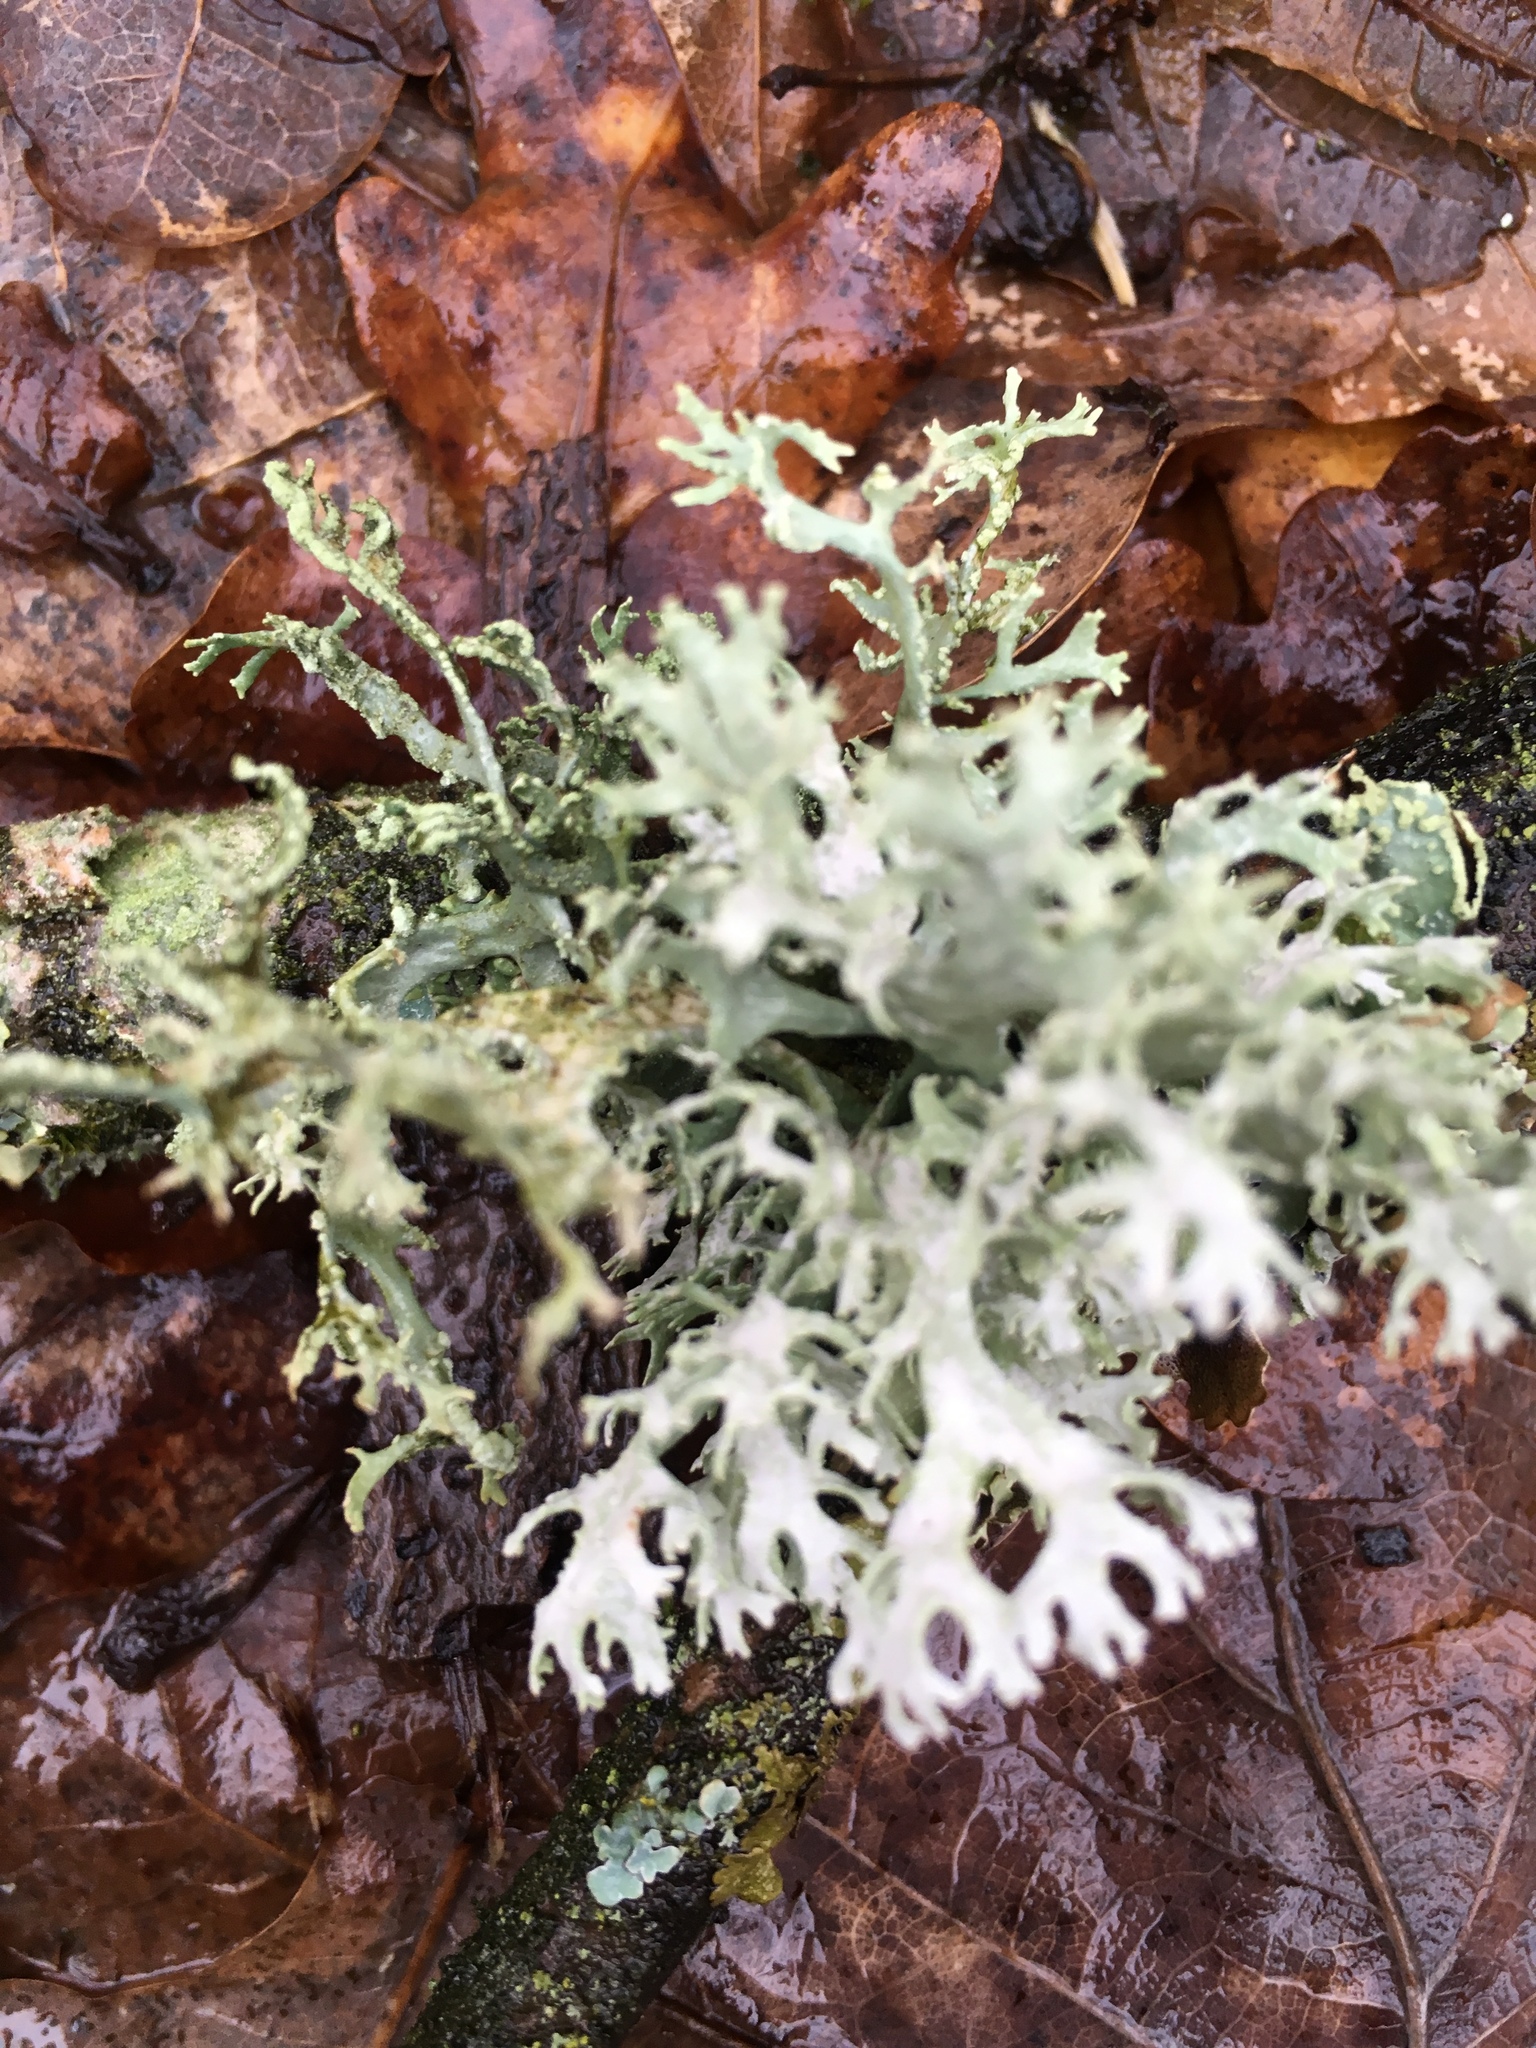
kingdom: Fungi
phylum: Ascomycota
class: Lecanoromycetes
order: Lecanorales
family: Parmeliaceae
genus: Evernia
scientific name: Evernia prunastri
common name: Oak moss
